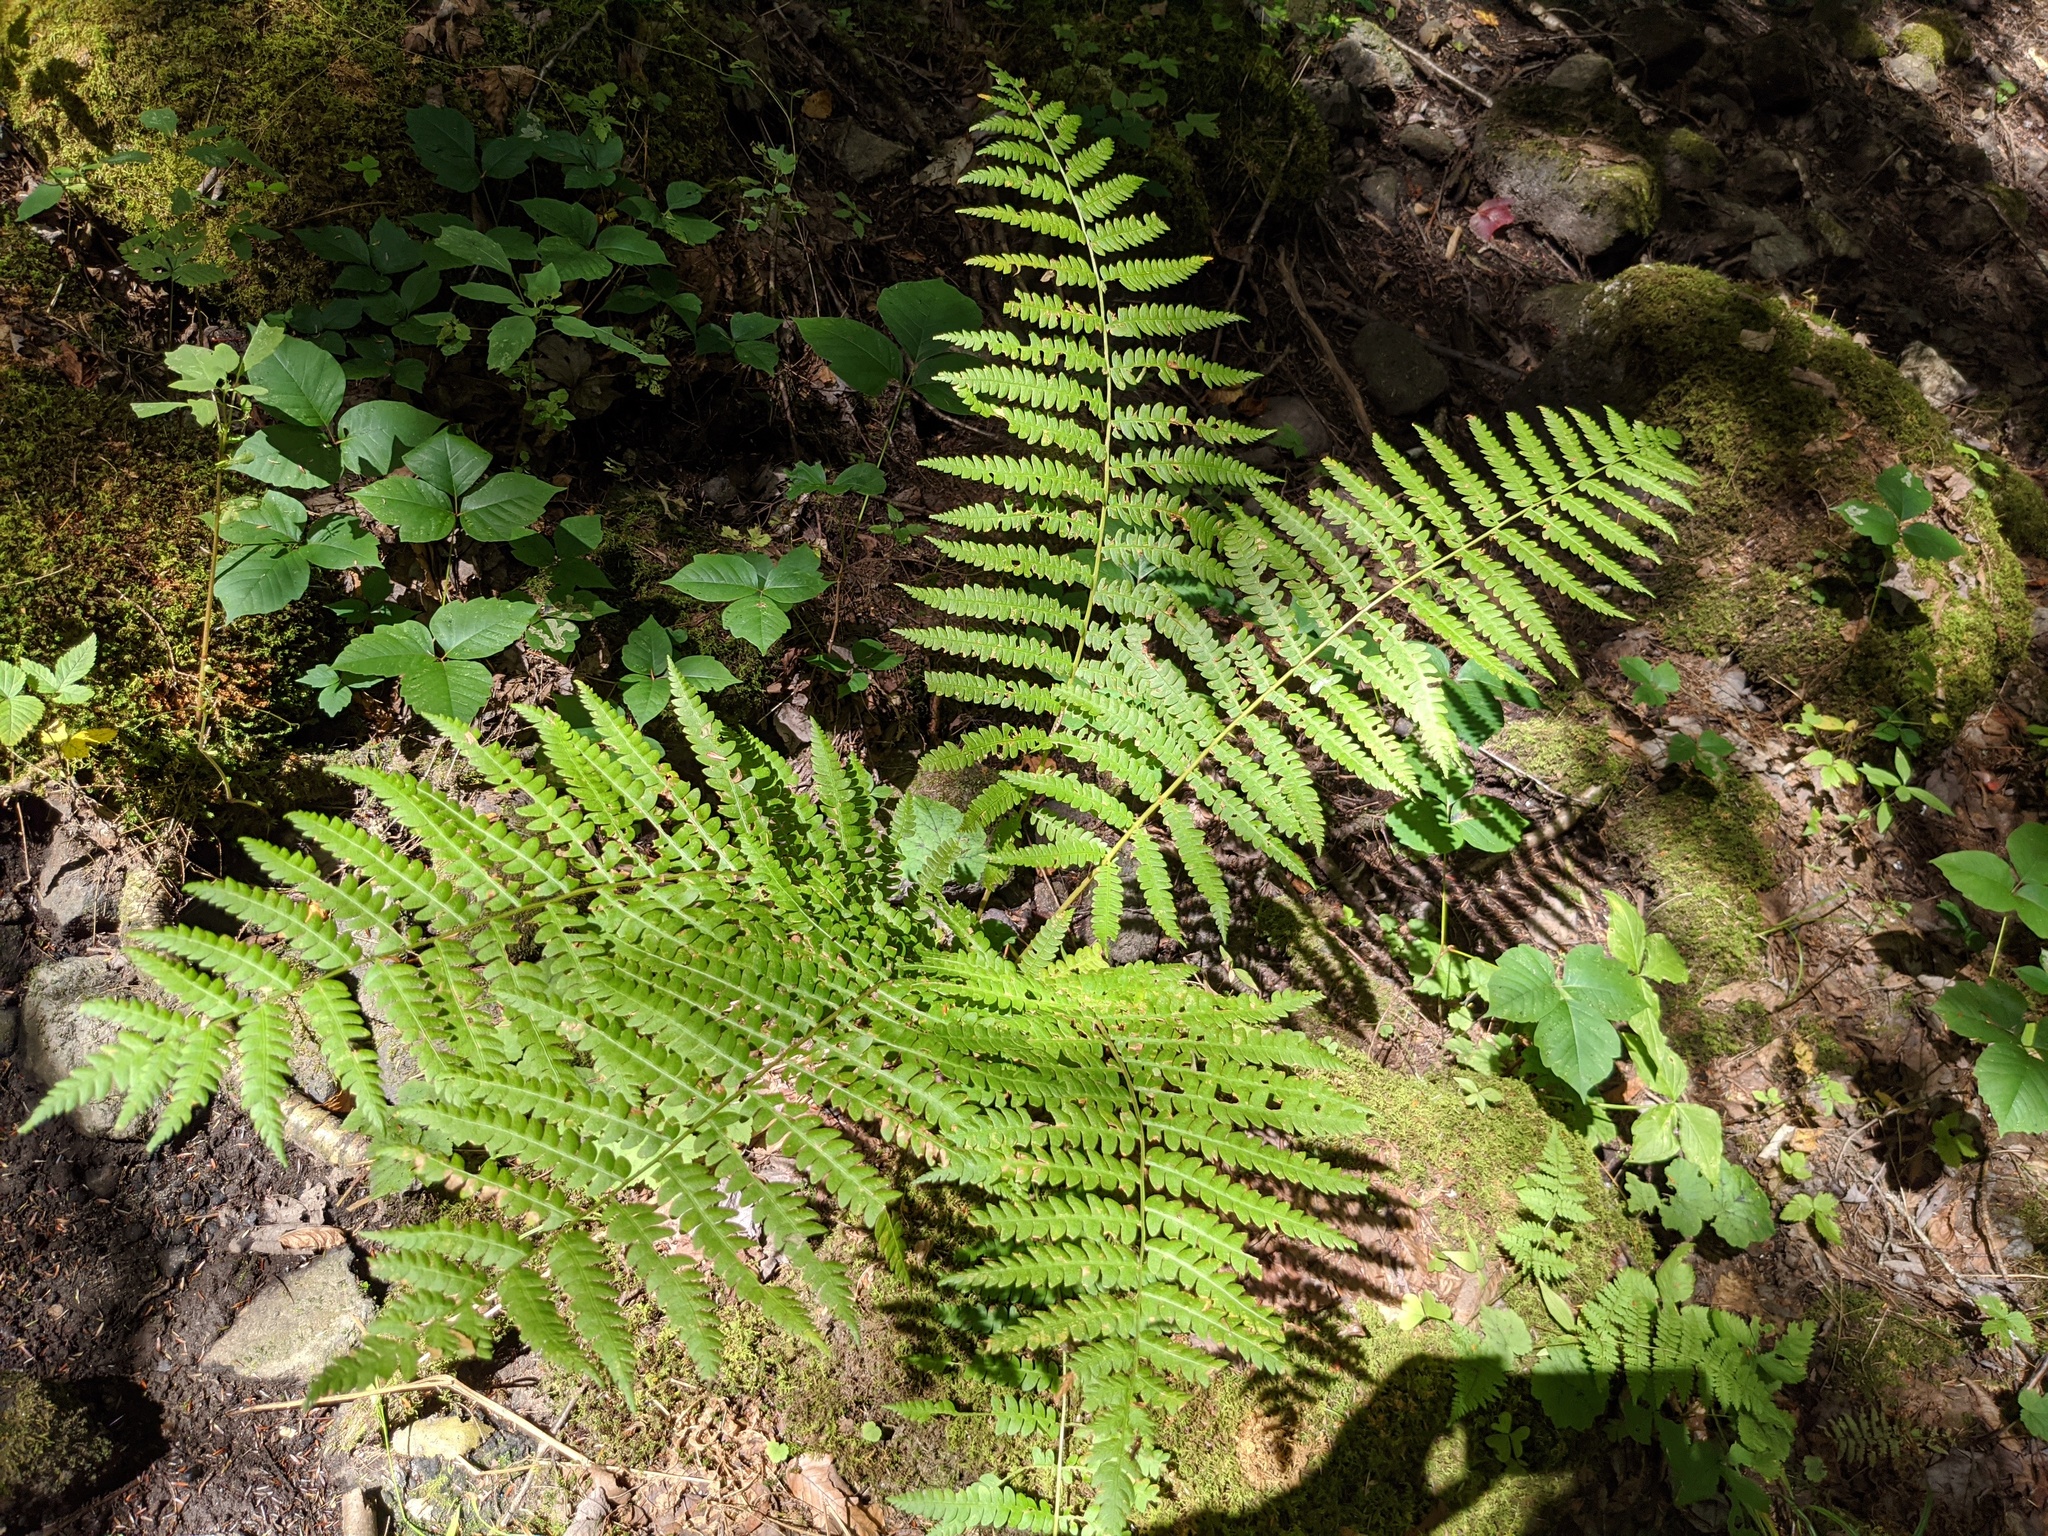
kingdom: Plantae
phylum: Tracheophyta
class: Polypodiopsida
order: Osmundales
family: Osmundaceae
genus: Osmundastrum
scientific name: Osmundastrum cinnamomeum
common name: Cinnamon fern
